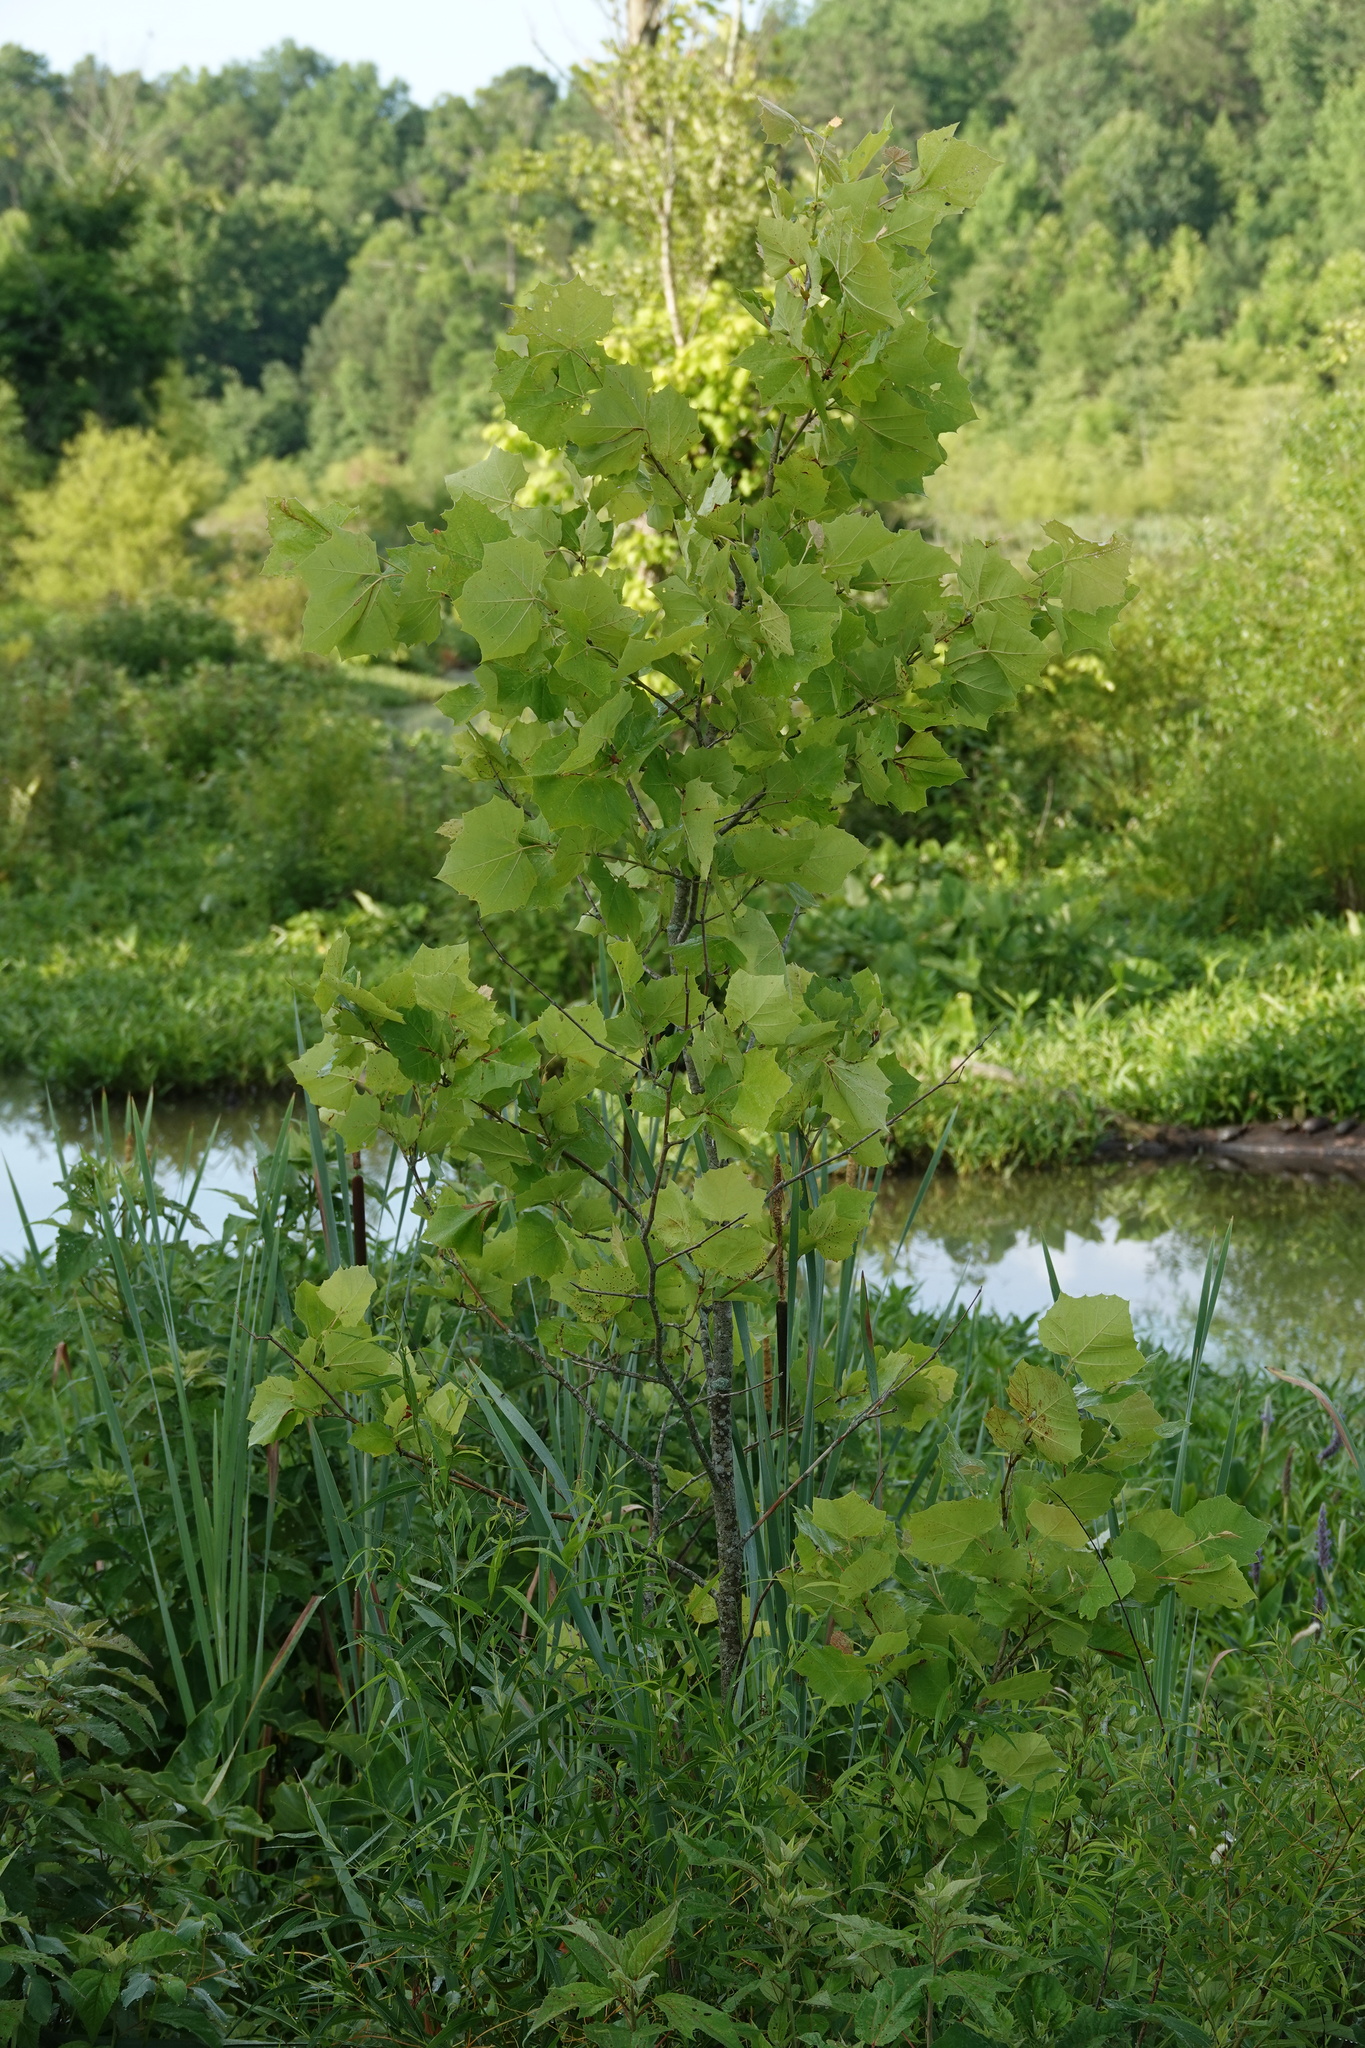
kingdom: Plantae
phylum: Tracheophyta
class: Magnoliopsida
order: Proteales
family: Platanaceae
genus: Platanus
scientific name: Platanus occidentalis
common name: American sycamore
